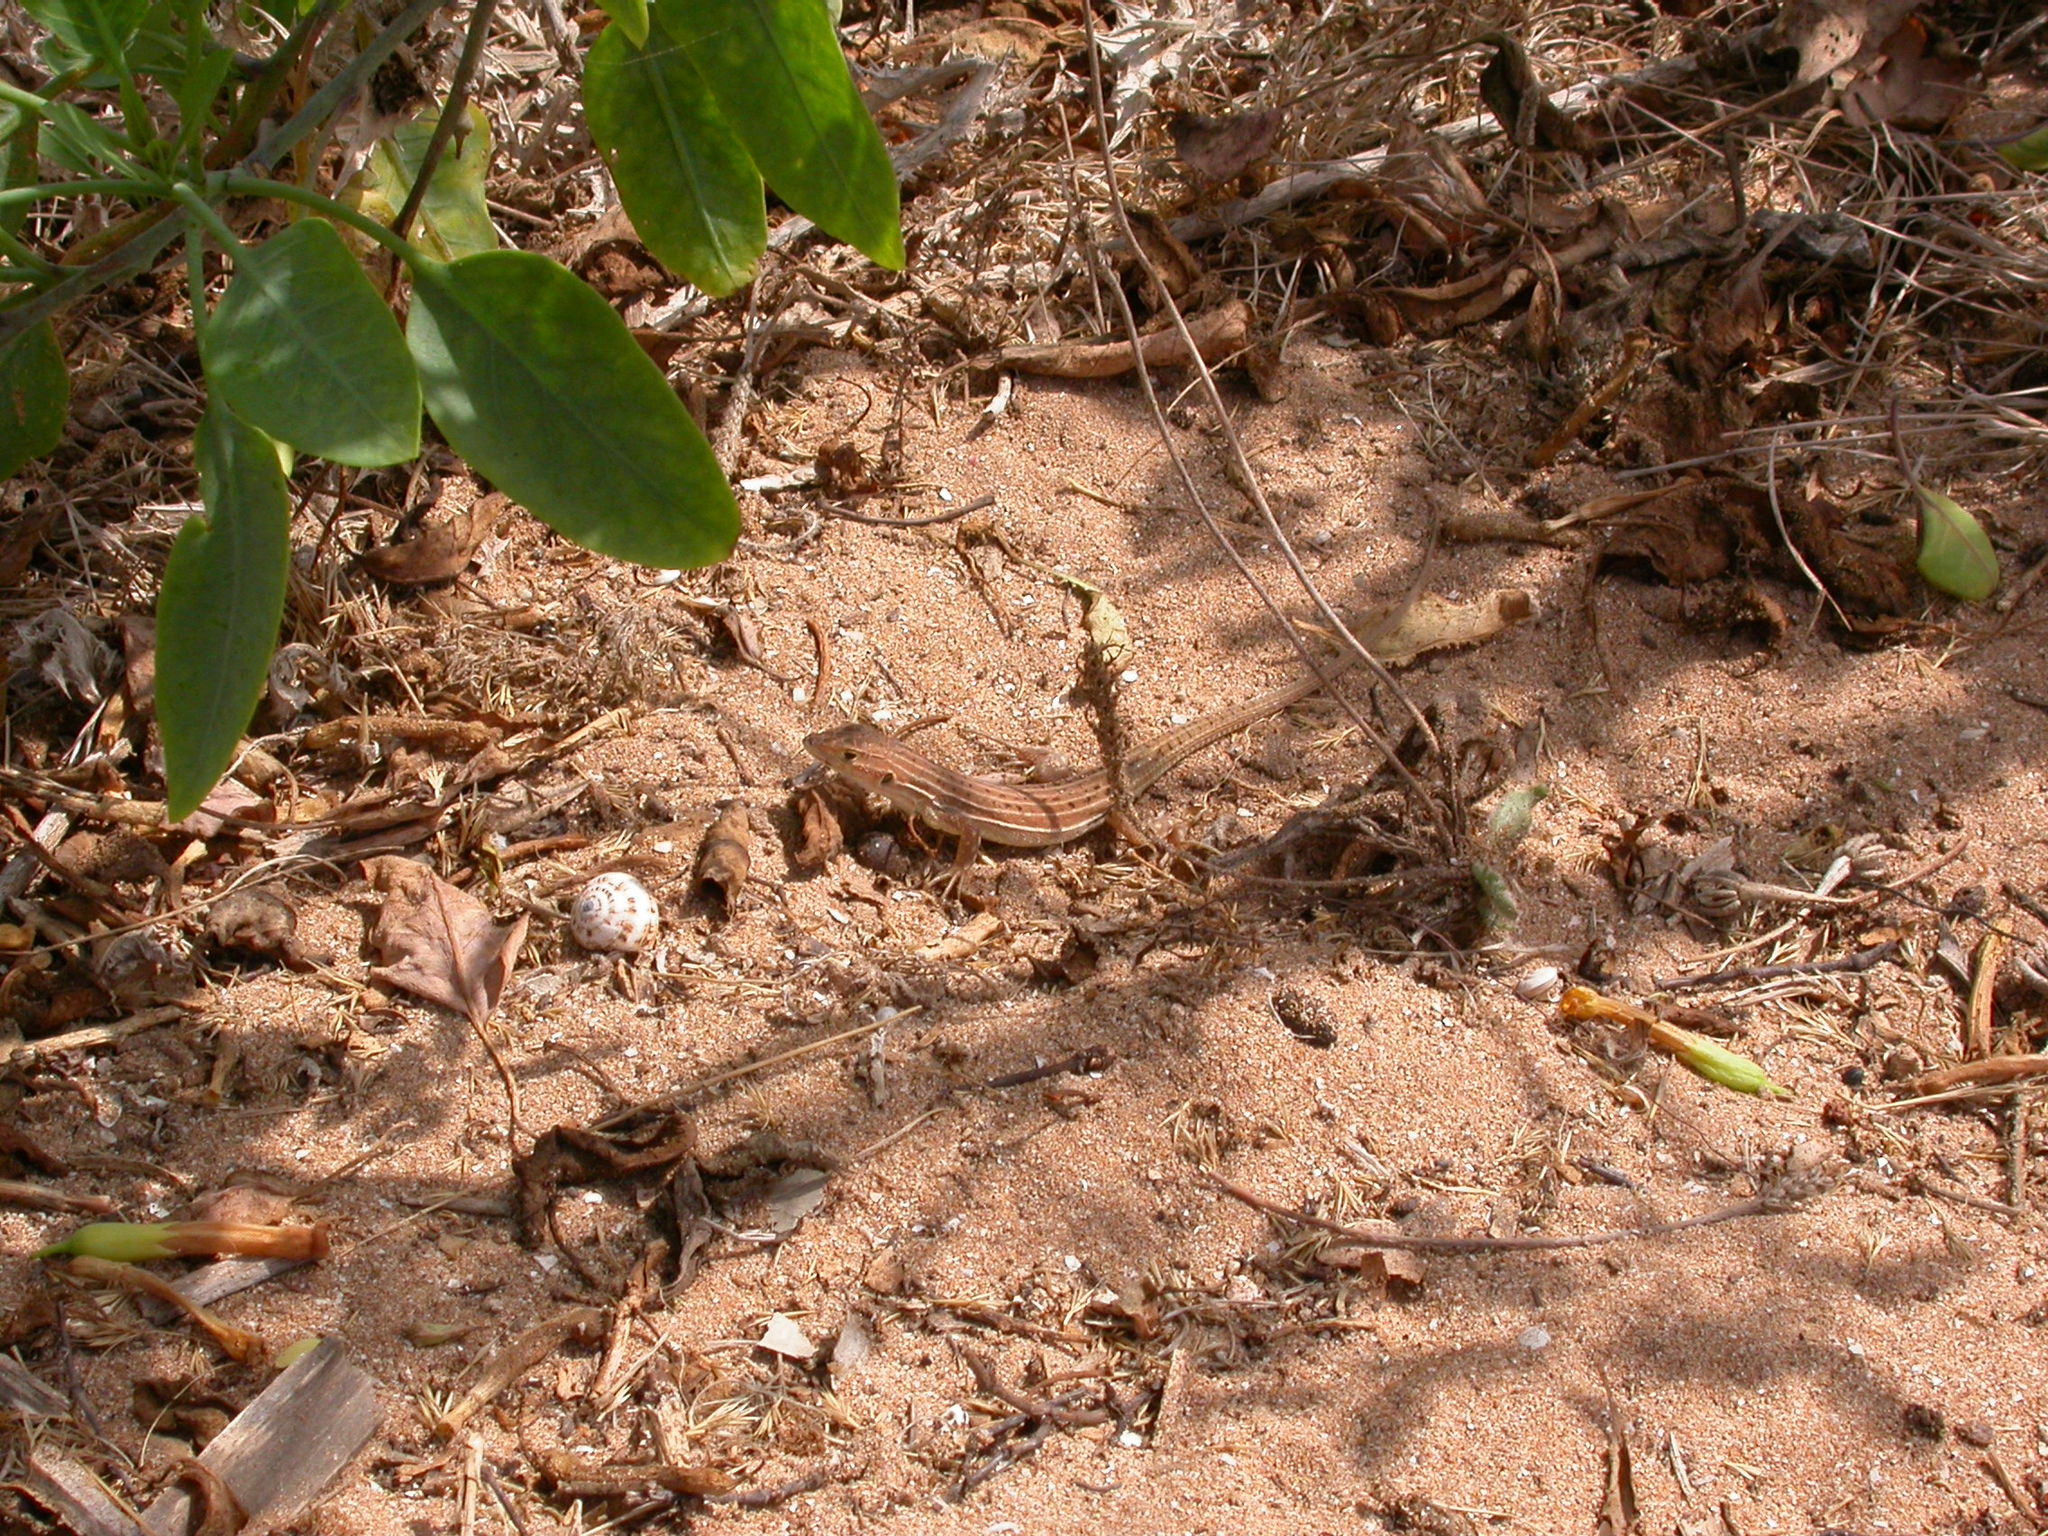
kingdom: Animalia
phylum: Chordata
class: Squamata
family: Lacertidae
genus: Acanthodactylus
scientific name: Acanthodactylus erythrurus
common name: Spiny-footed lizard
